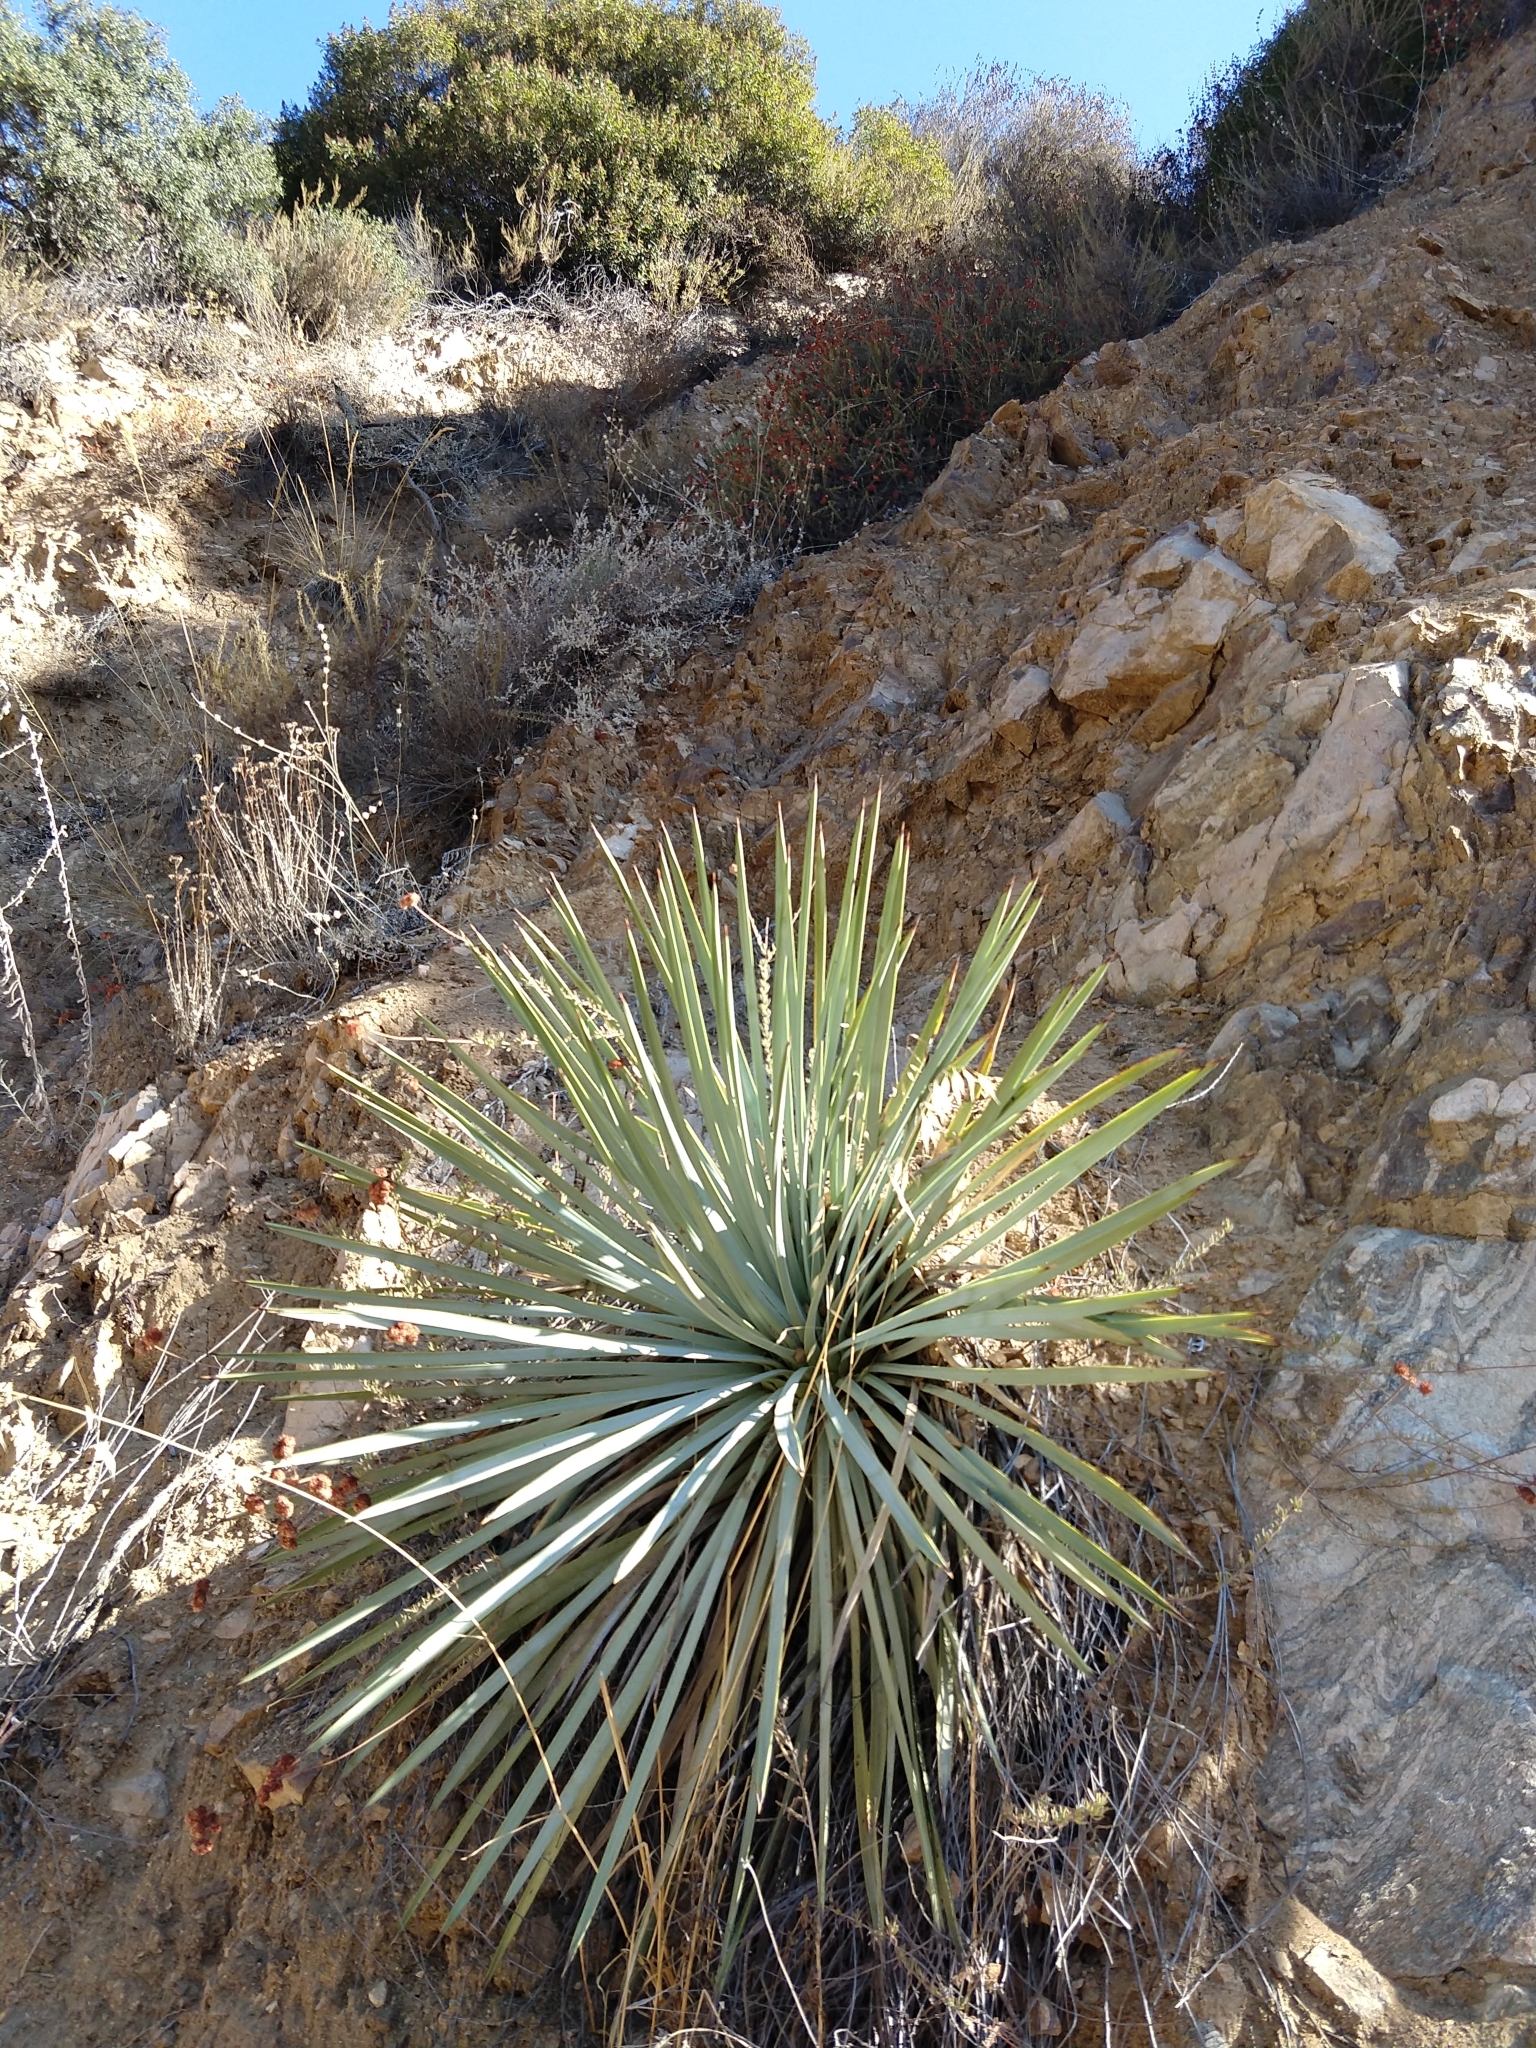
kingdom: Plantae
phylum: Tracheophyta
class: Liliopsida
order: Asparagales
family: Asparagaceae
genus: Hesperoyucca
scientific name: Hesperoyucca whipplei
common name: Our lord's-candle
